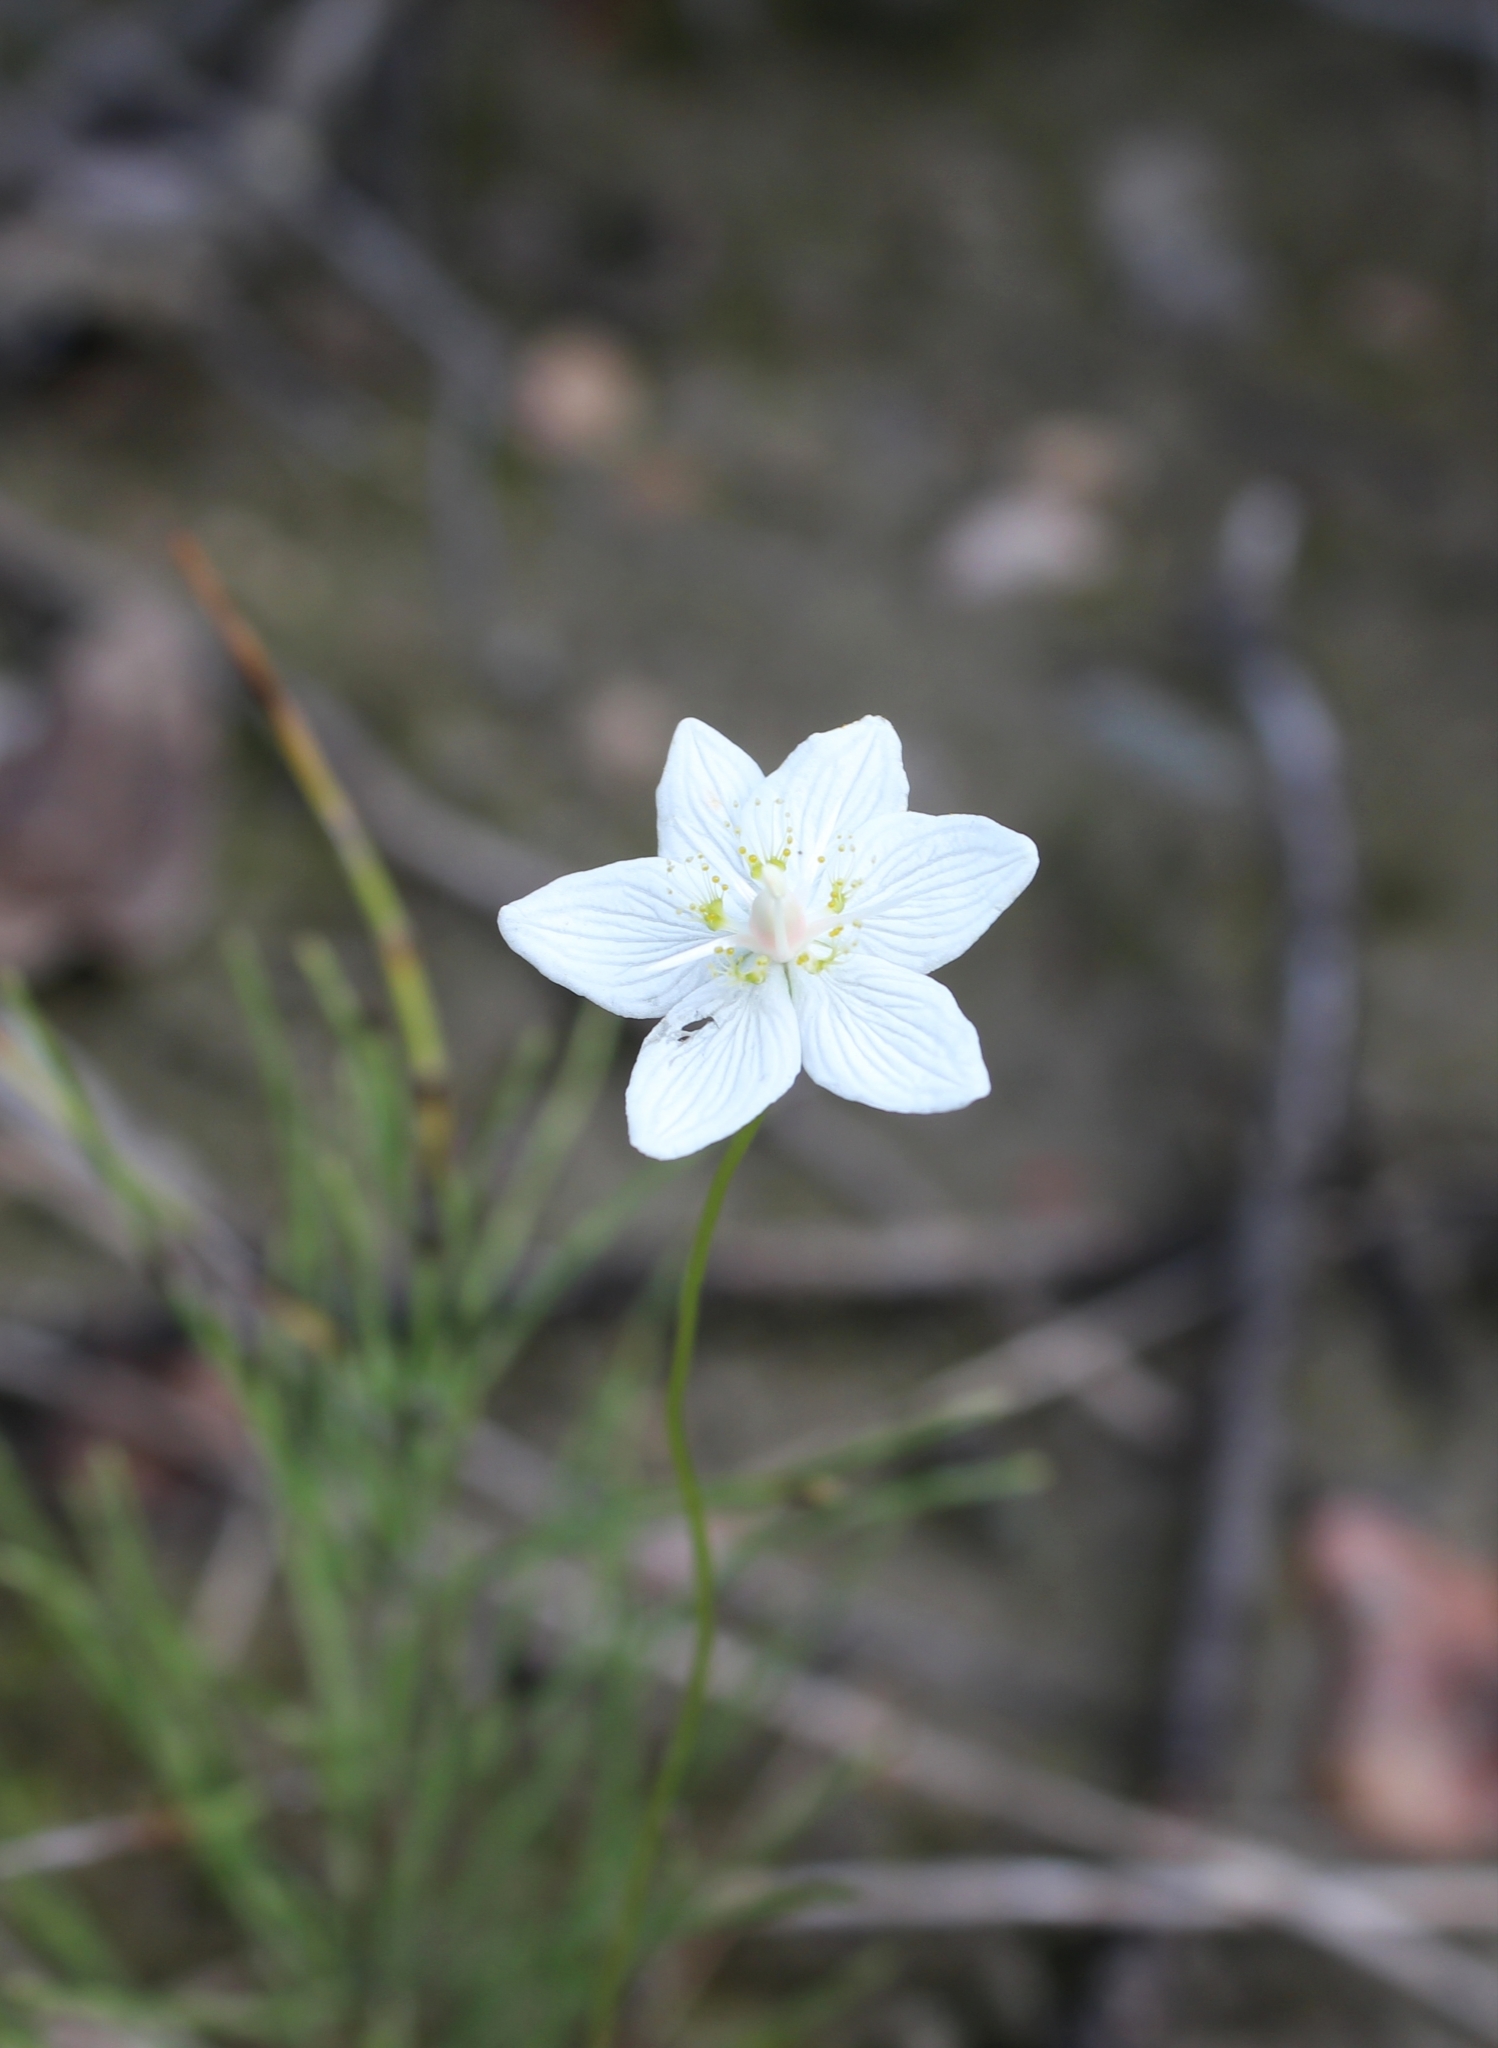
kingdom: Plantae
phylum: Tracheophyta
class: Magnoliopsida
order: Celastrales
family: Parnassiaceae
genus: Parnassia
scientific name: Parnassia palustris
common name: Grass-of-parnassus
